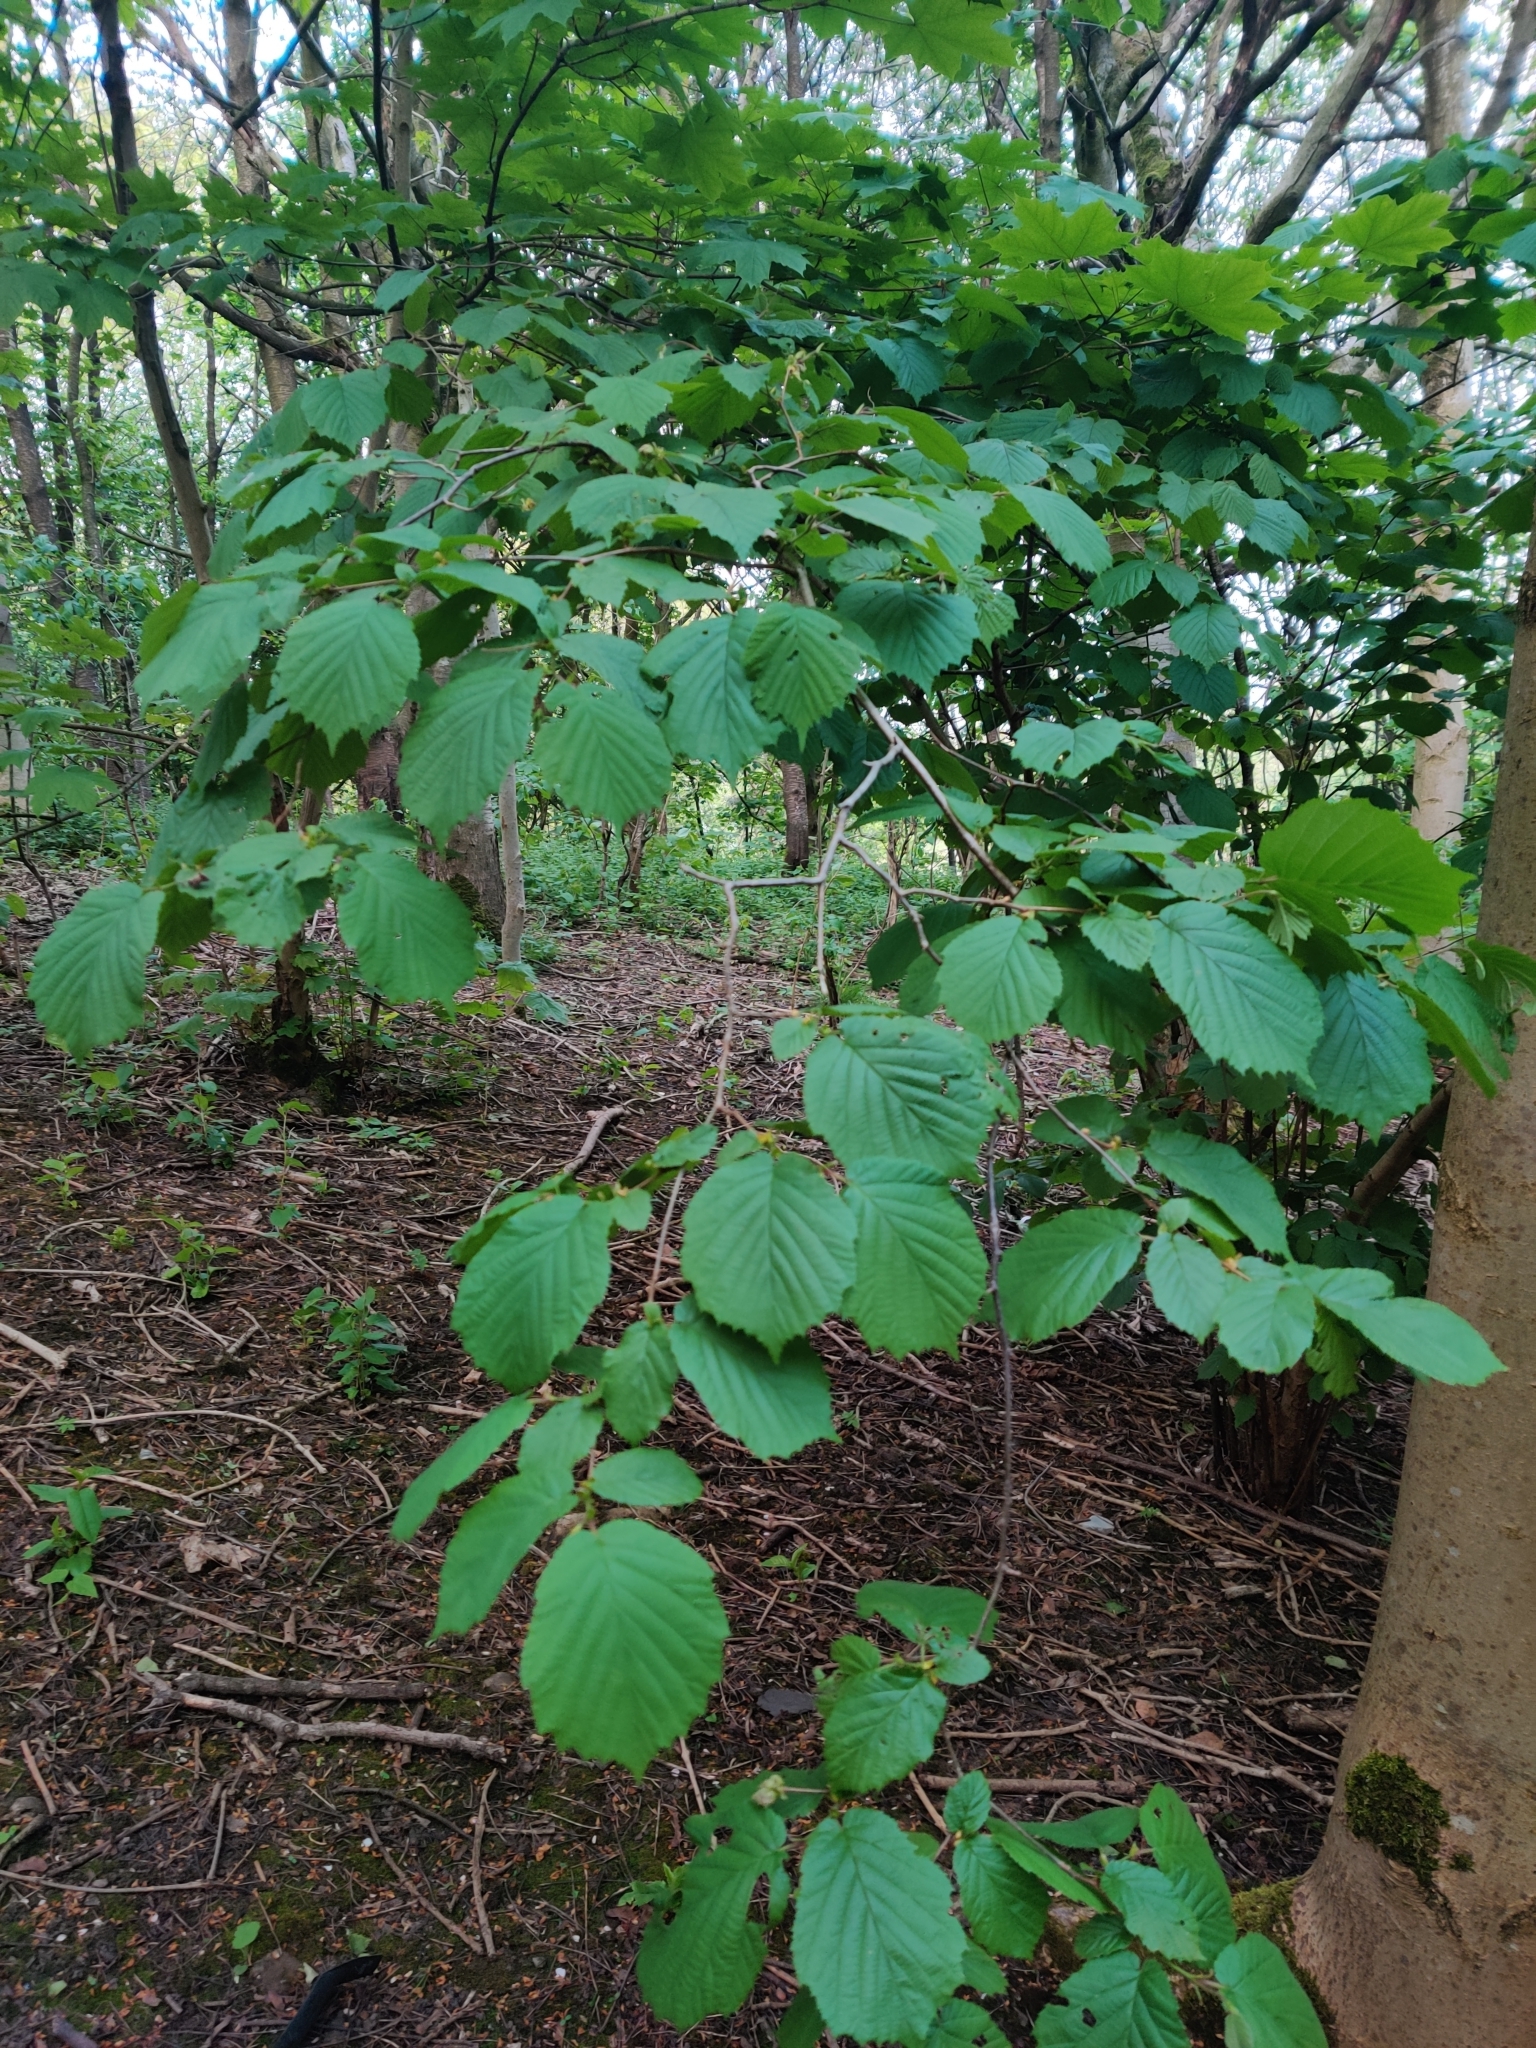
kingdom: Plantae
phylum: Tracheophyta
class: Magnoliopsida
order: Fagales
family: Betulaceae
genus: Corylus
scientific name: Corylus avellana
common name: European hazel
